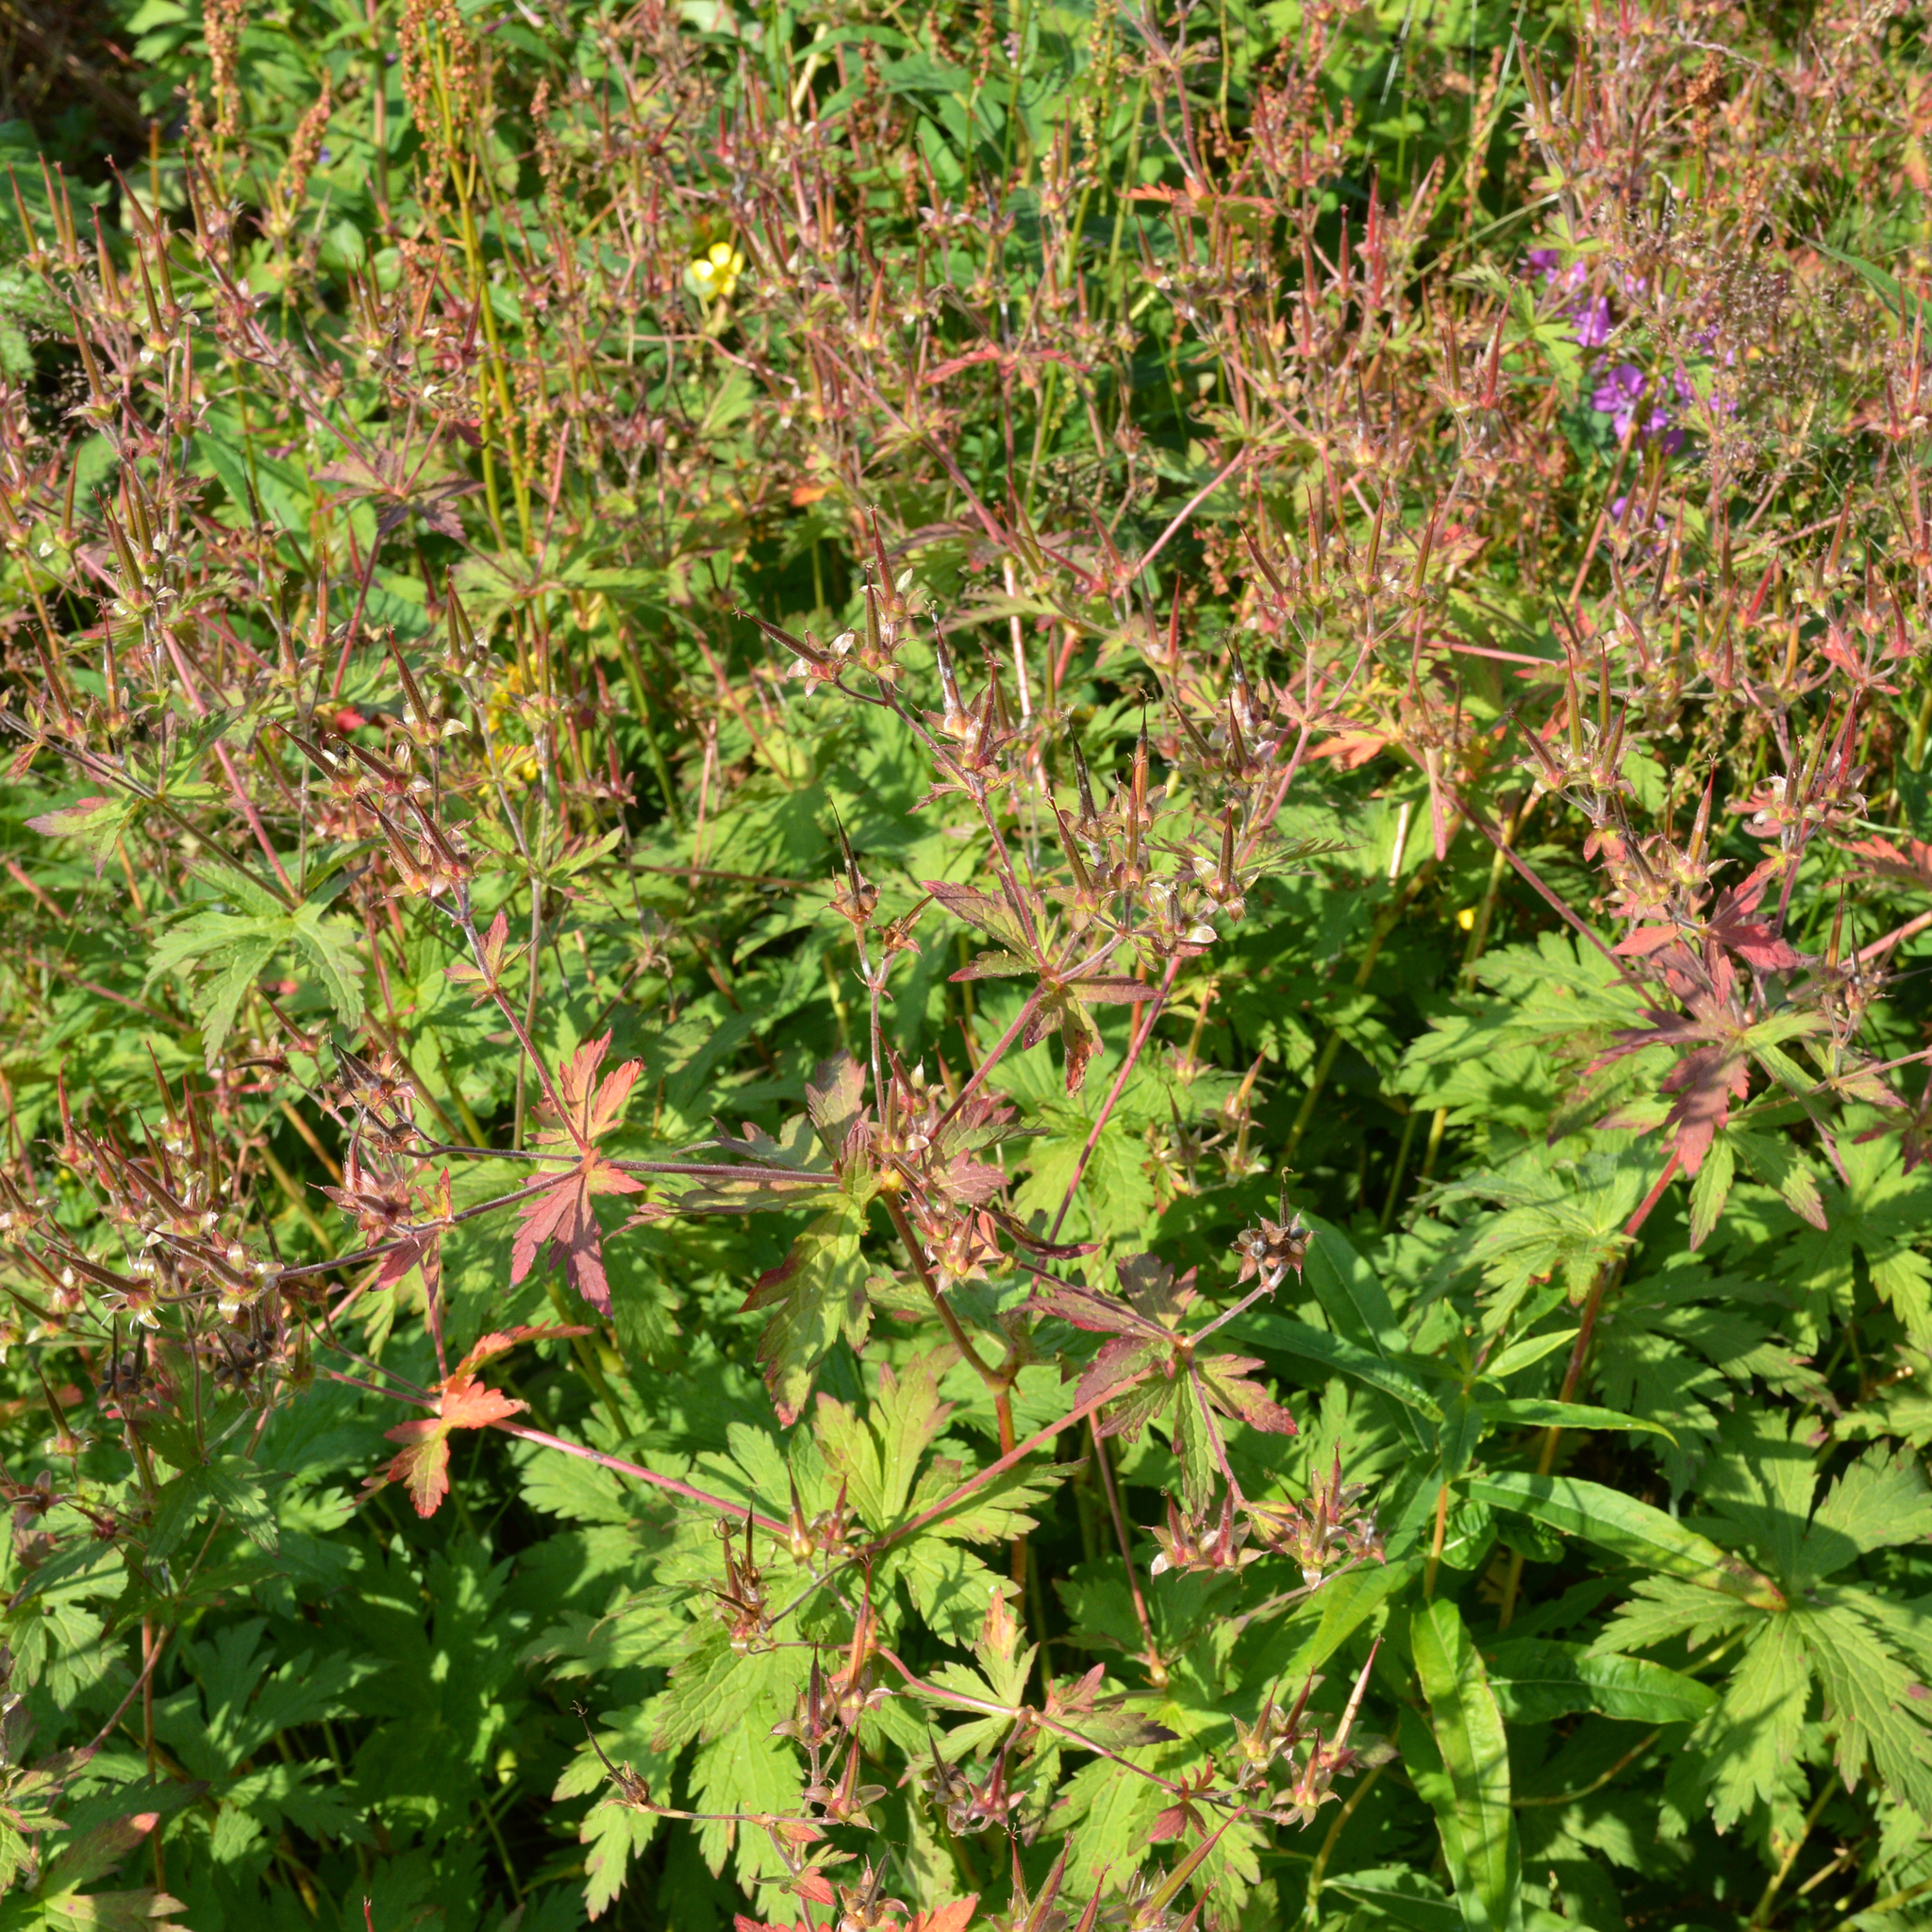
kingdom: Plantae
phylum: Tracheophyta
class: Magnoliopsida
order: Geraniales
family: Geraniaceae
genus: Geranium
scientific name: Geranium sylvaticum
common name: Wood crane's-bill
